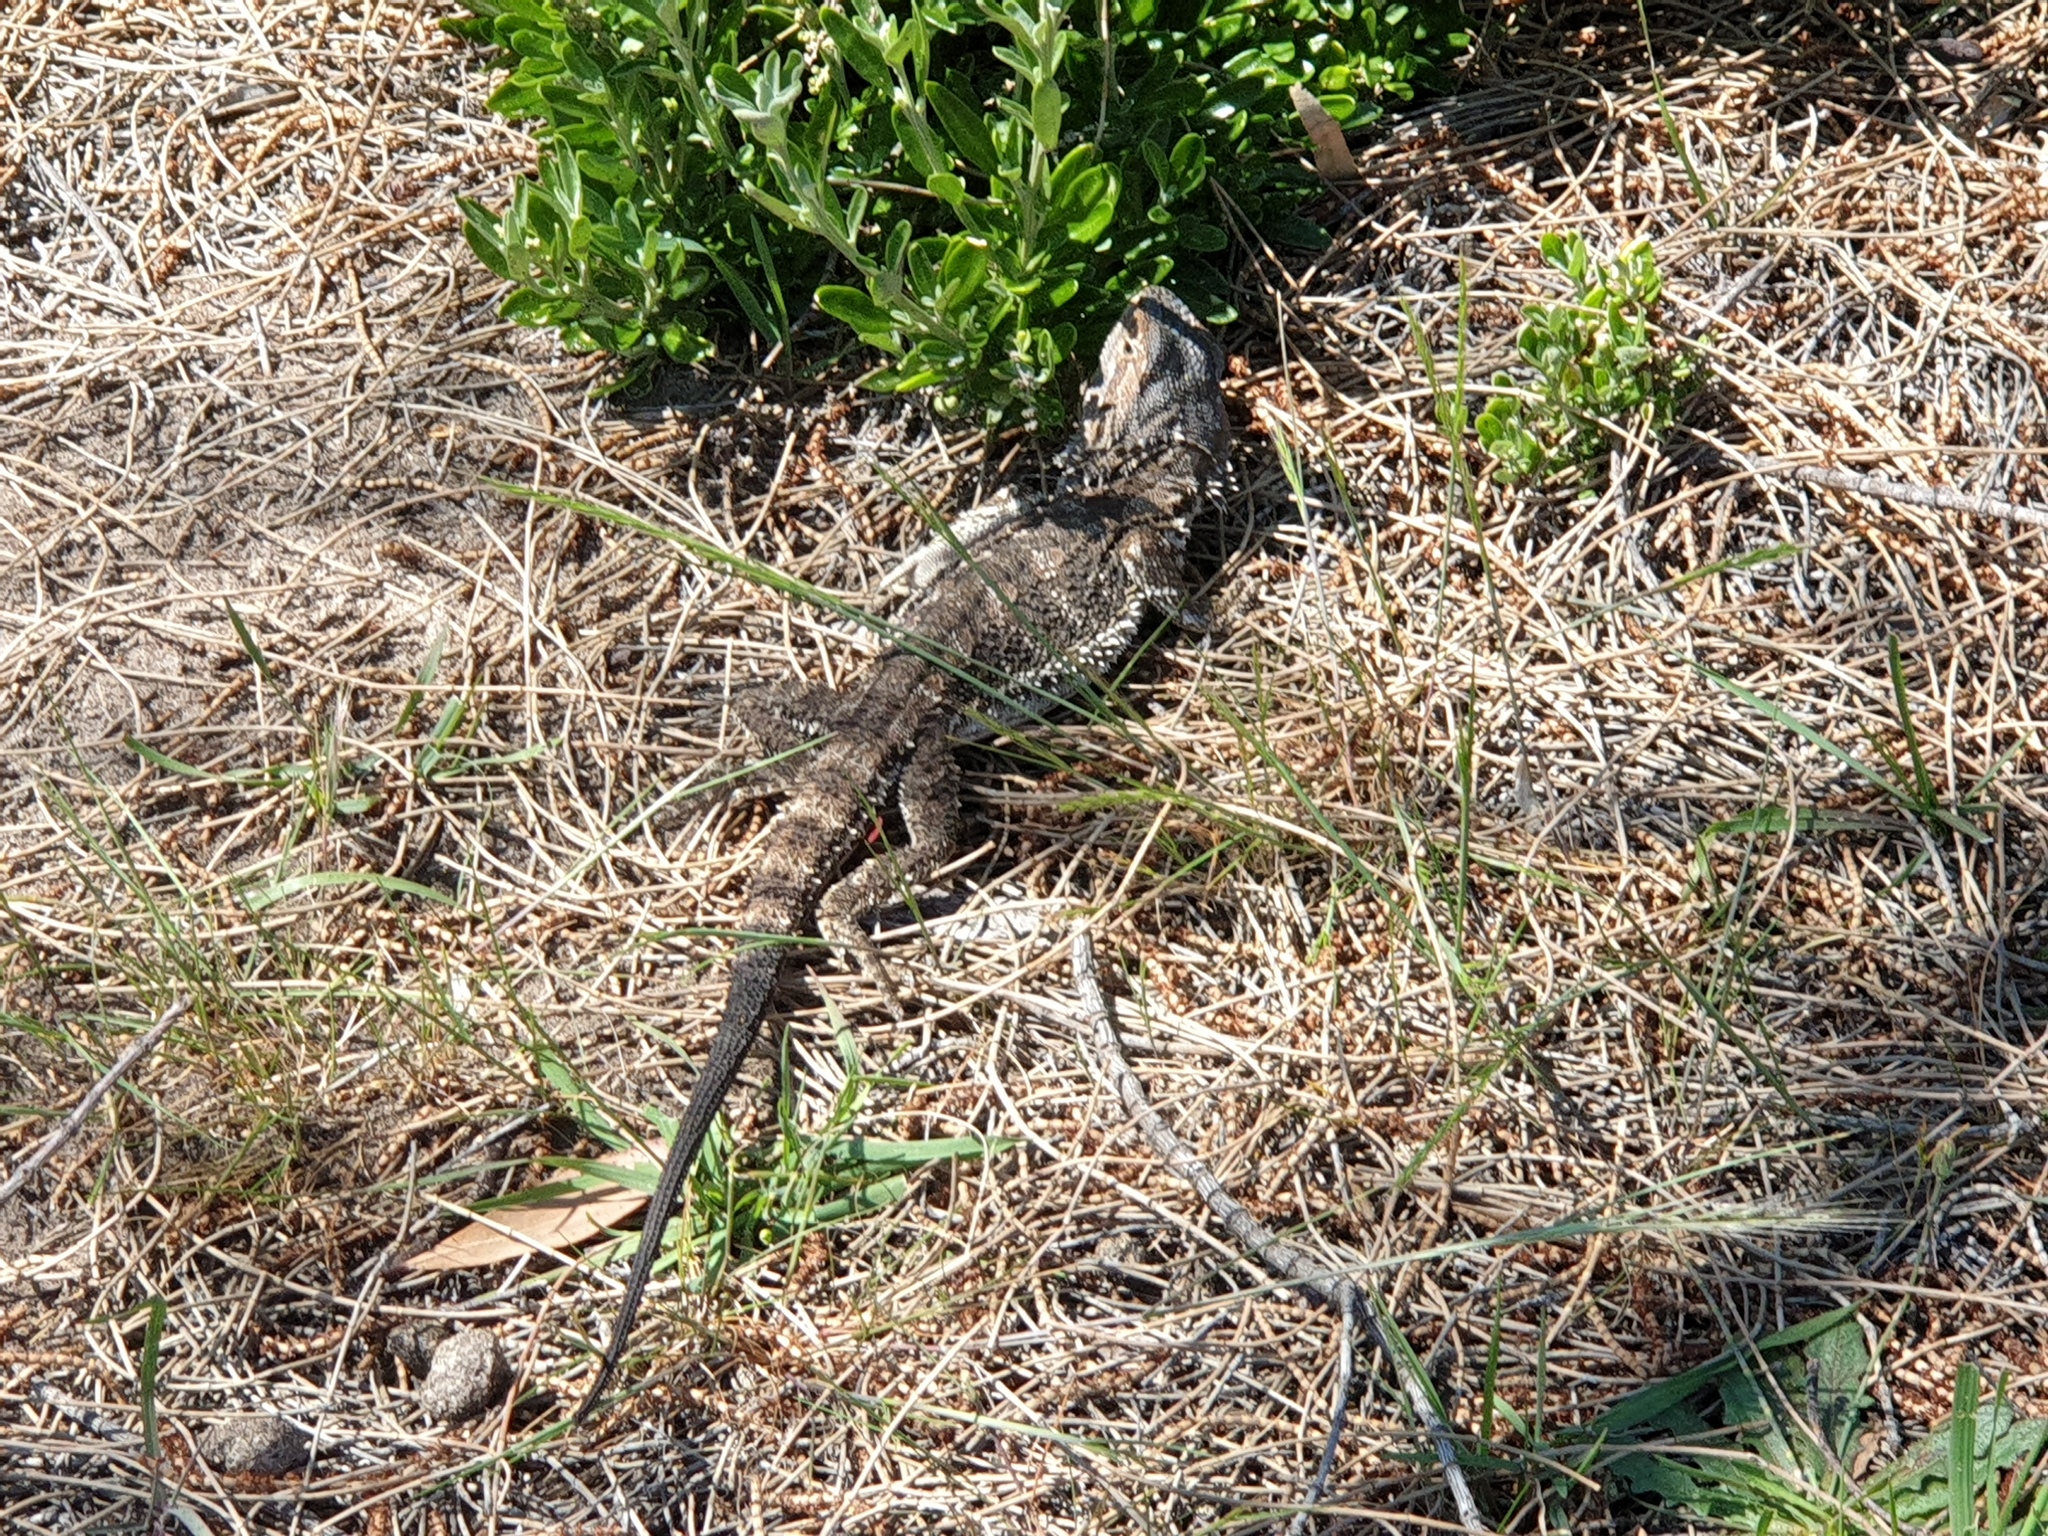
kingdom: Animalia
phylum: Chordata
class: Squamata
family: Agamidae
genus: Pogona
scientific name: Pogona barbata
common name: Bearded dragon
